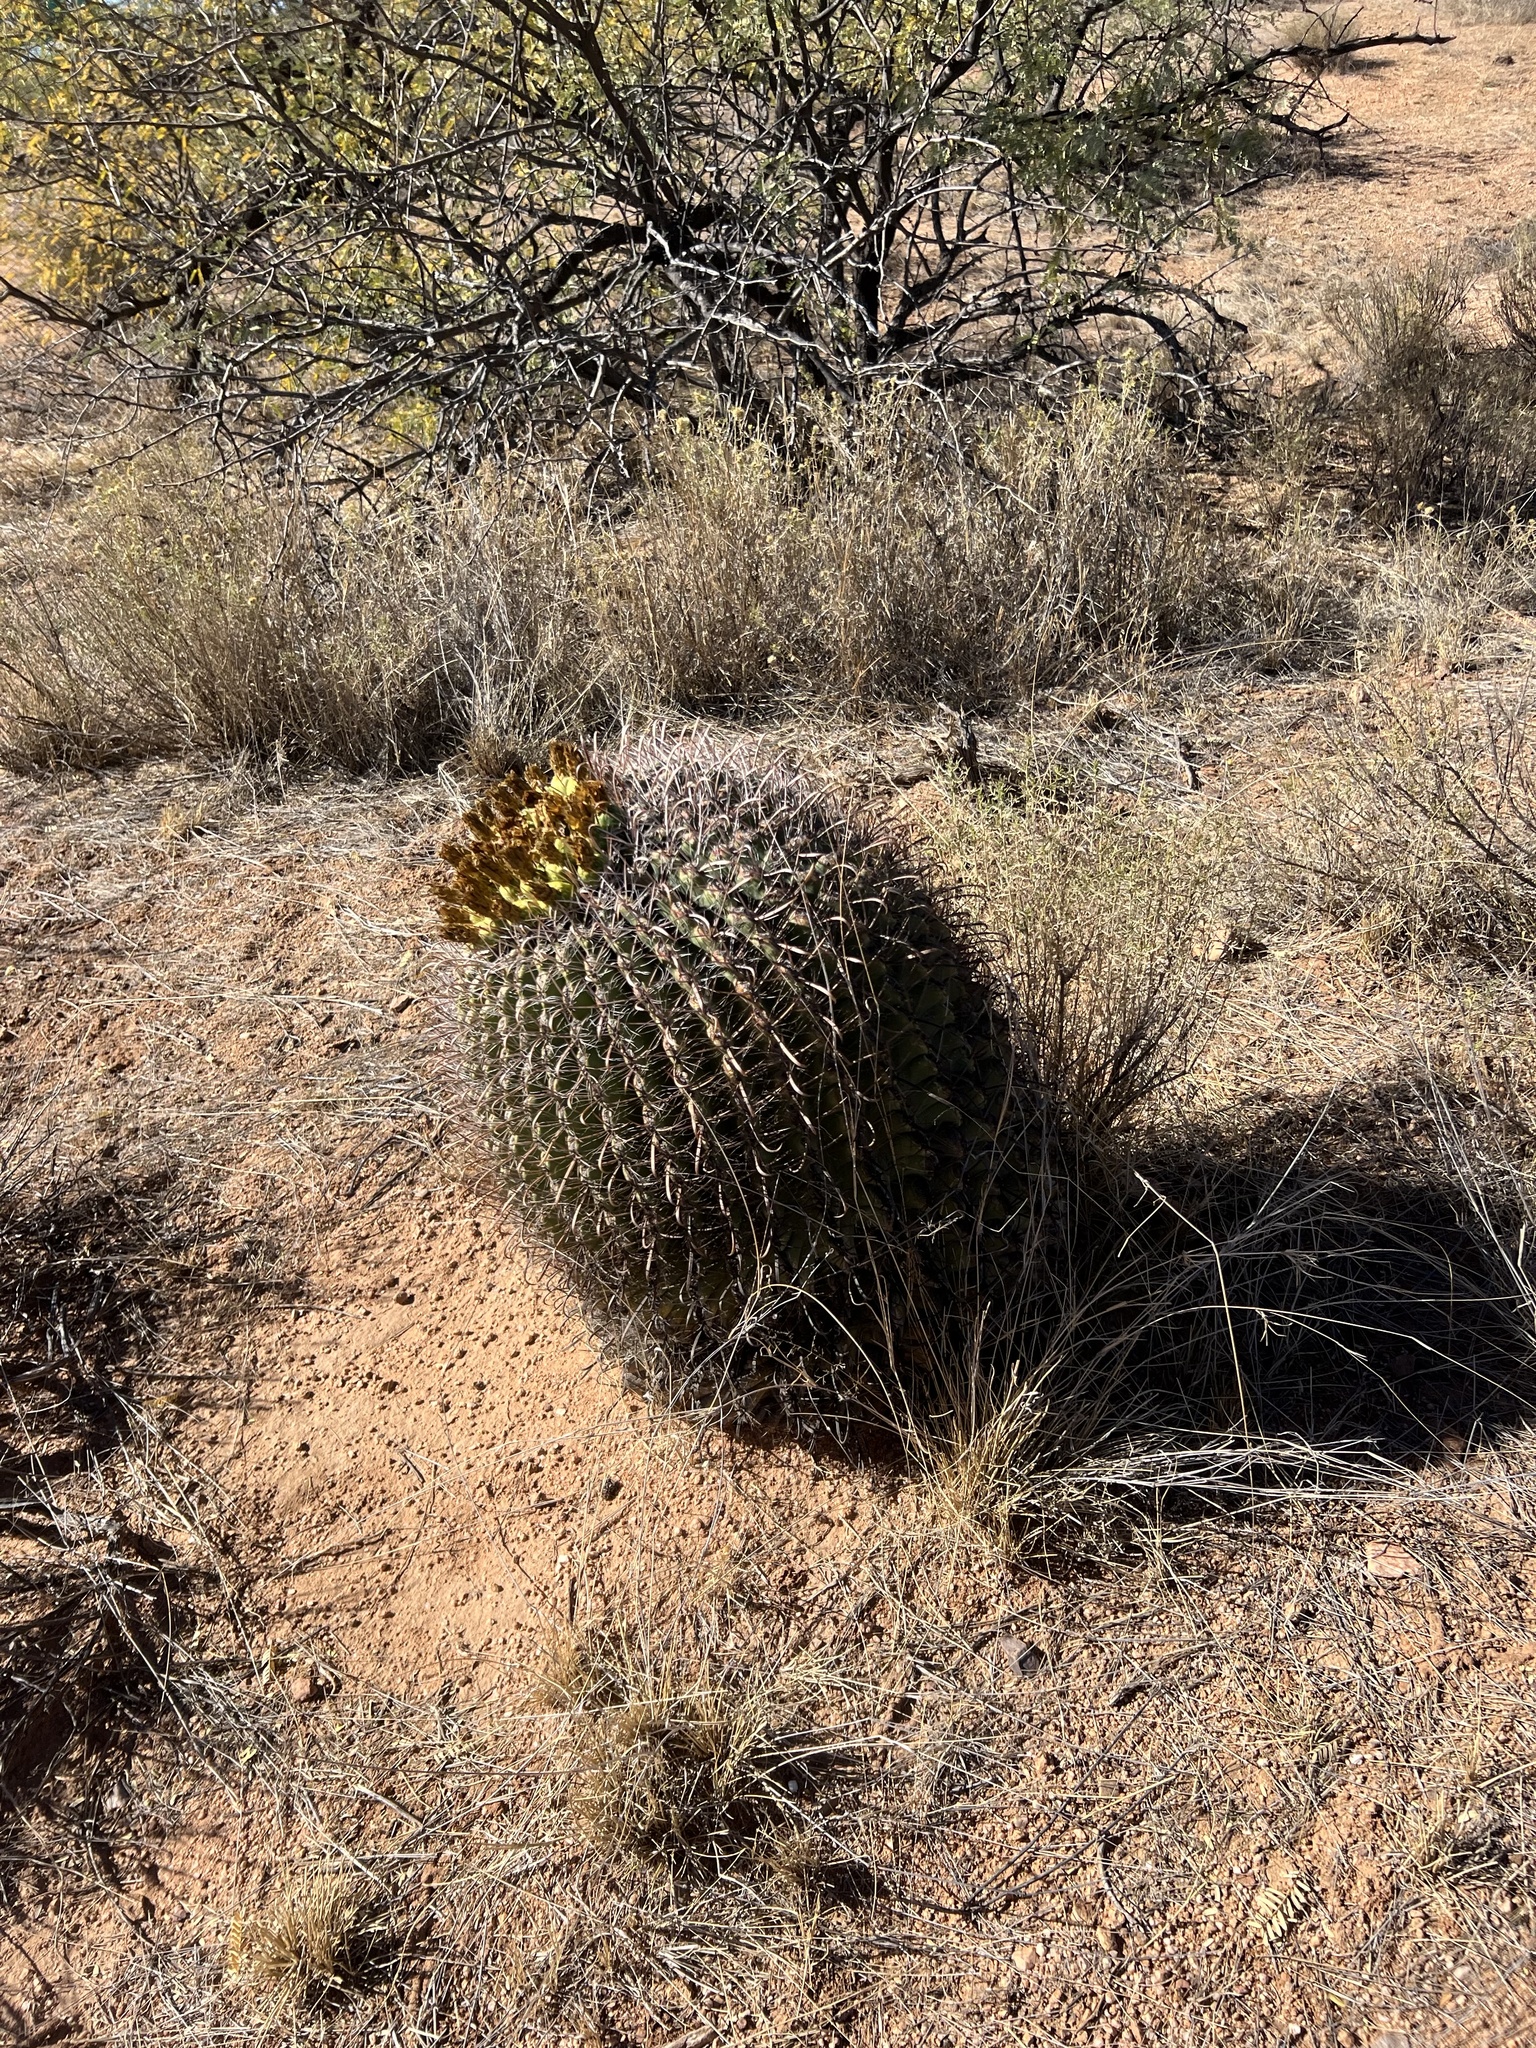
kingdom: Plantae
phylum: Tracheophyta
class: Magnoliopsida
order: Caryophyllales
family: Cactaceae
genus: Ferocactus
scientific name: Ferocactus wislizeni
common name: Candy barrel cactus
